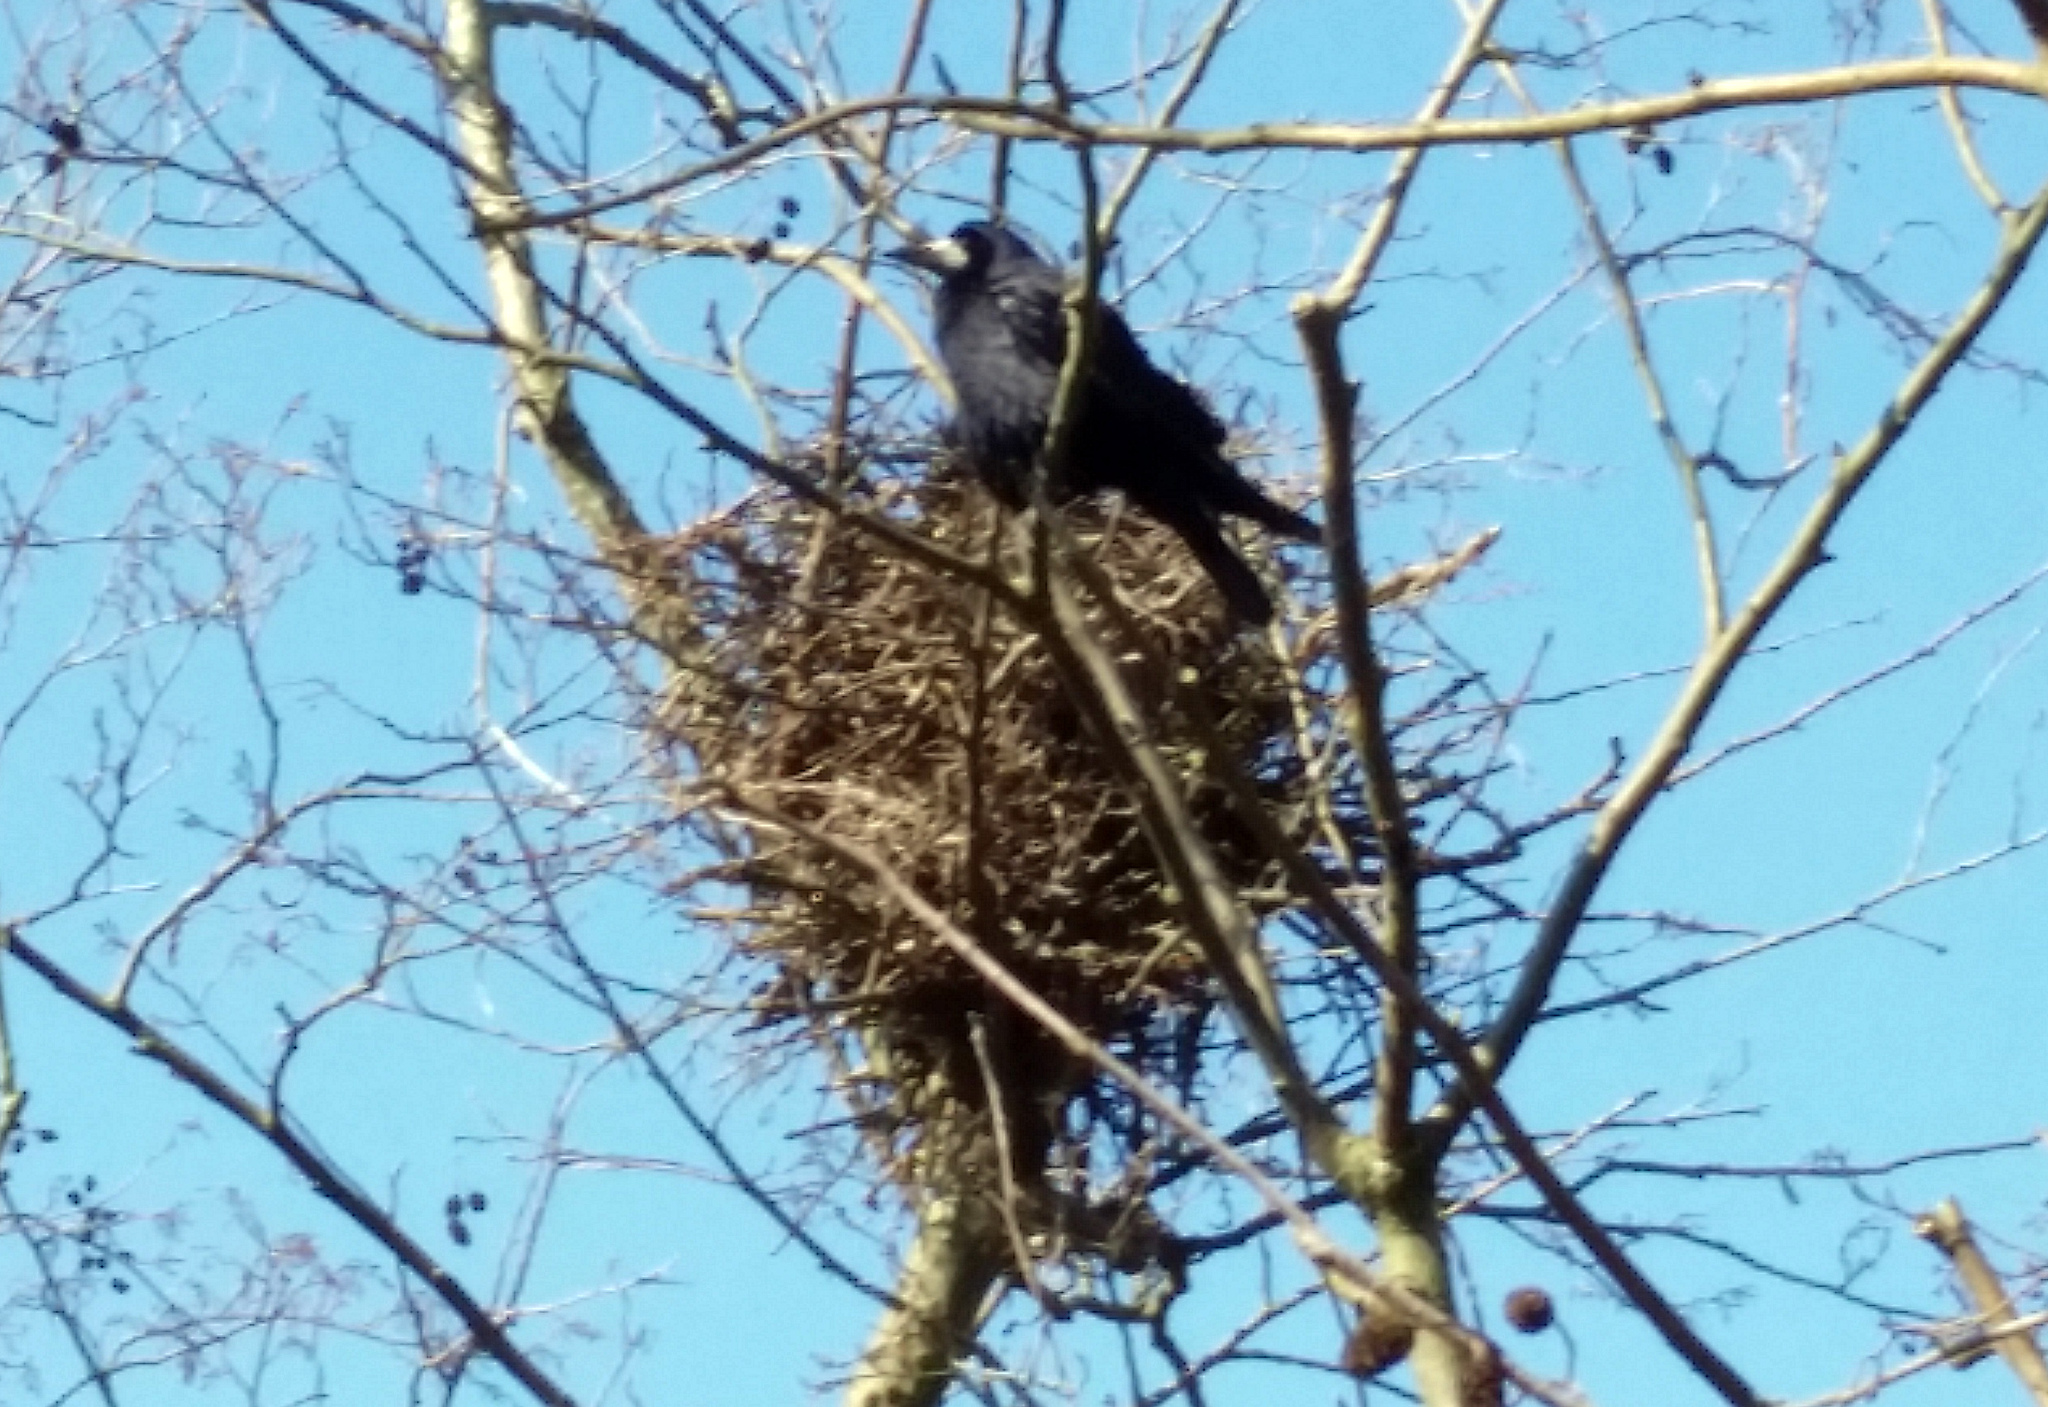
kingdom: Animalia
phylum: Chordata
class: Aves
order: Passeriformes
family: Corvidae
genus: Corvus
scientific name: Corvus frugilegus
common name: Rook
